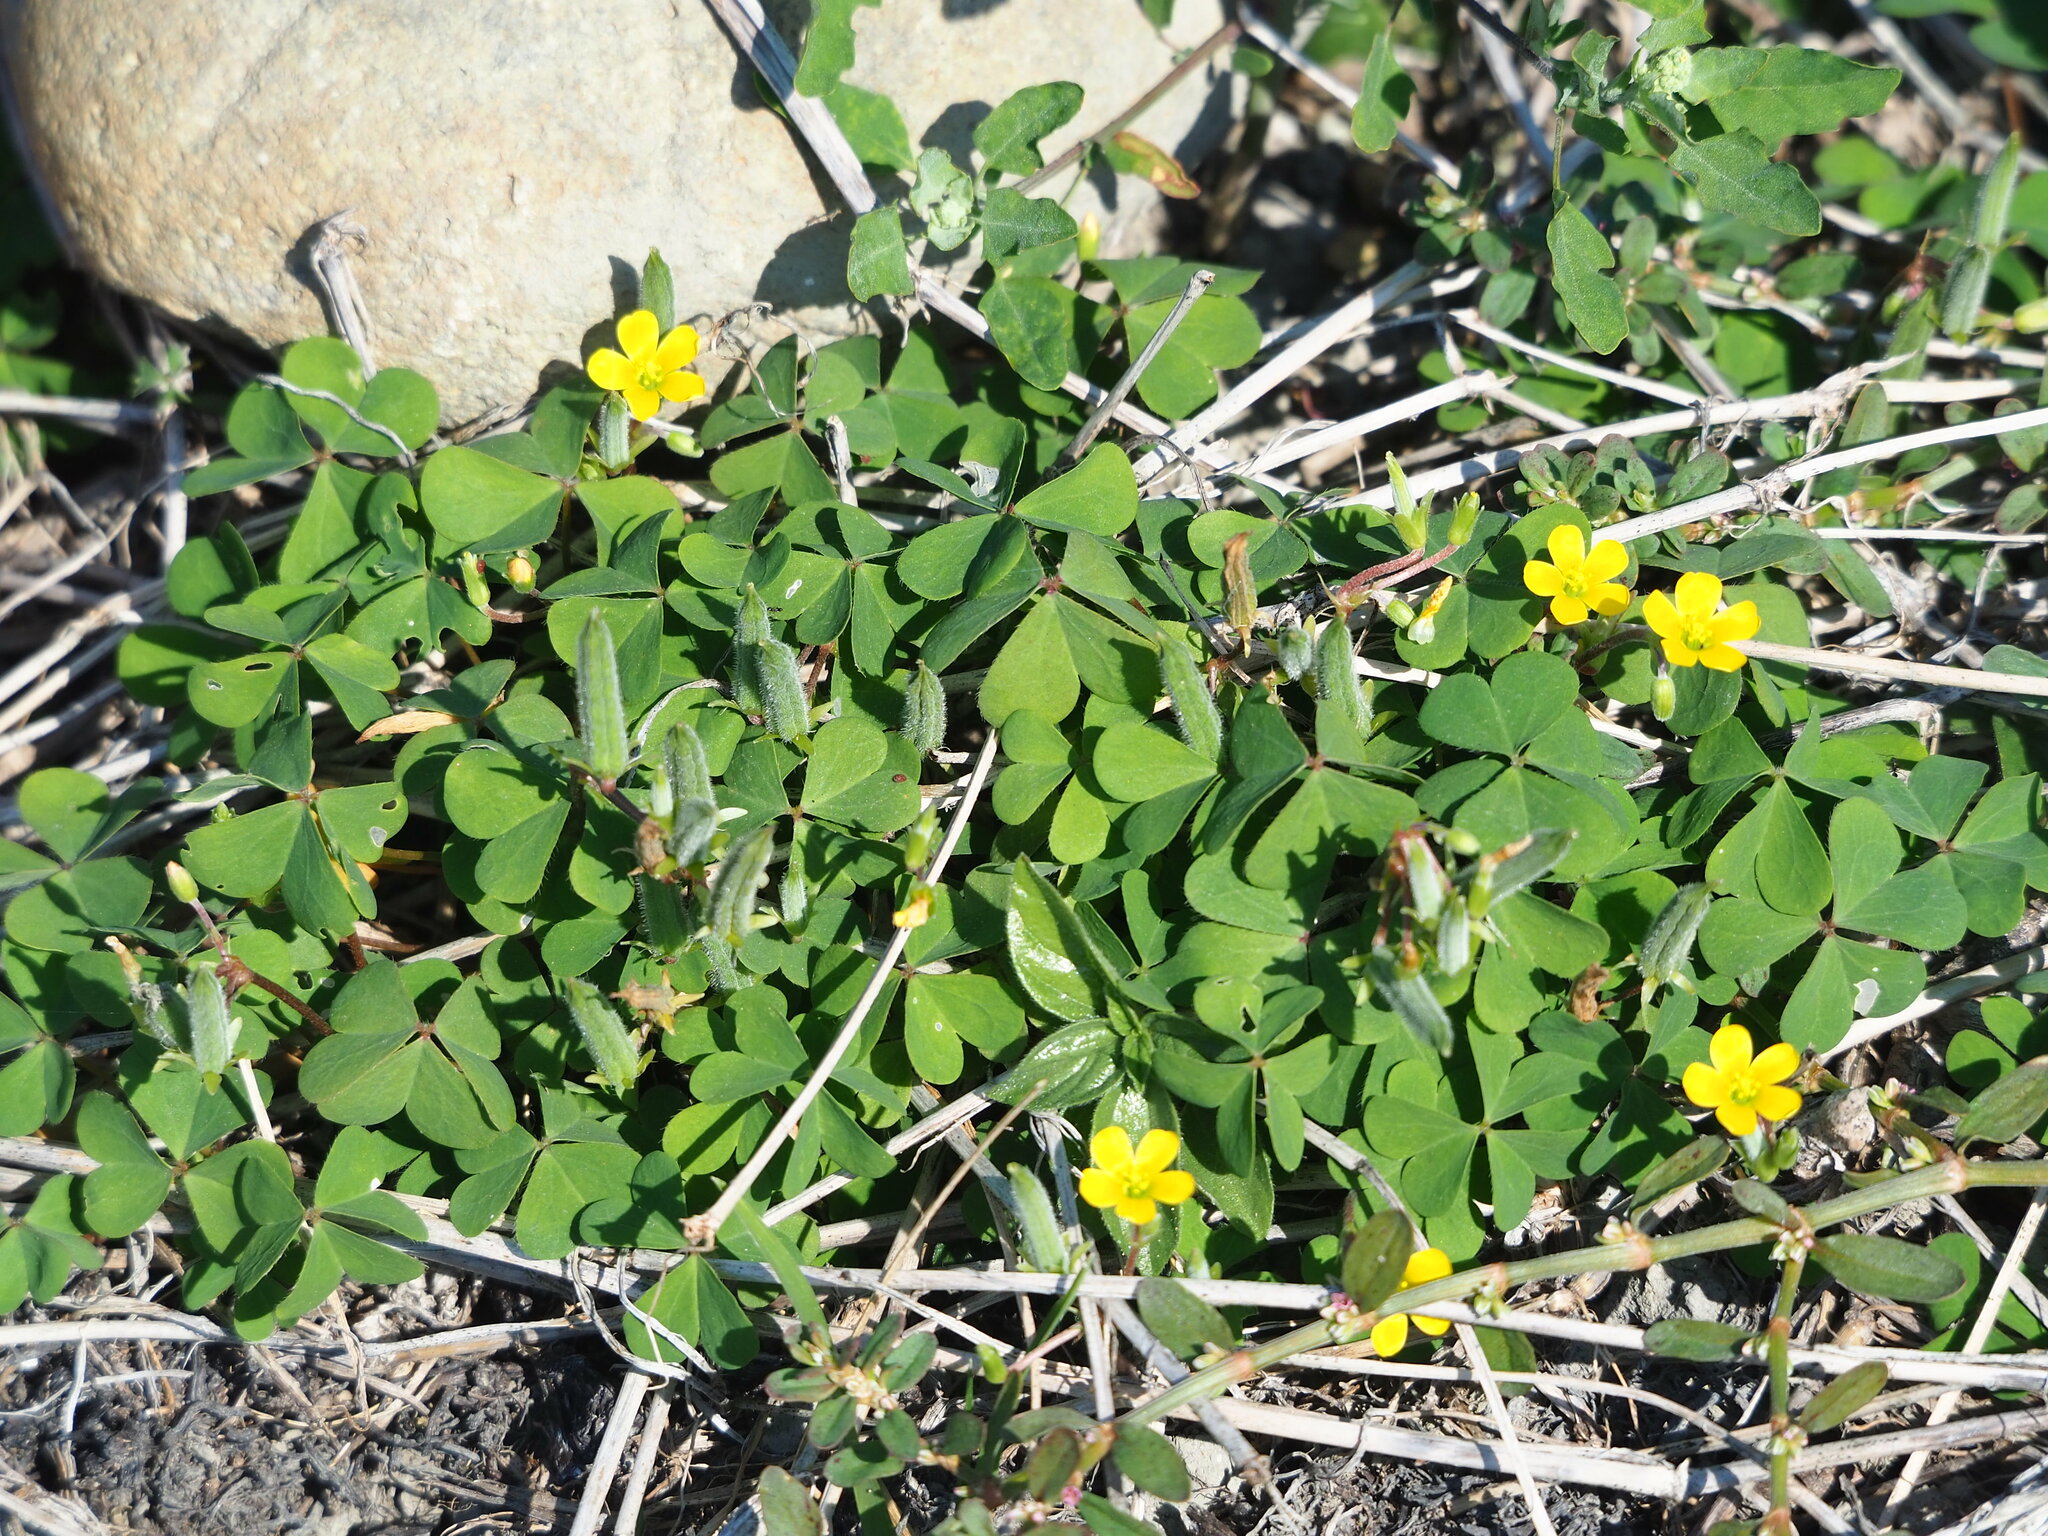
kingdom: Plantae
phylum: Tracheophyta
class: Magnoliopsida
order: Oxalidales
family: Oxalidaceae
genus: Oxalis
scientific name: Oxalis corniculata
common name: Procumbent yellow-sorrel
